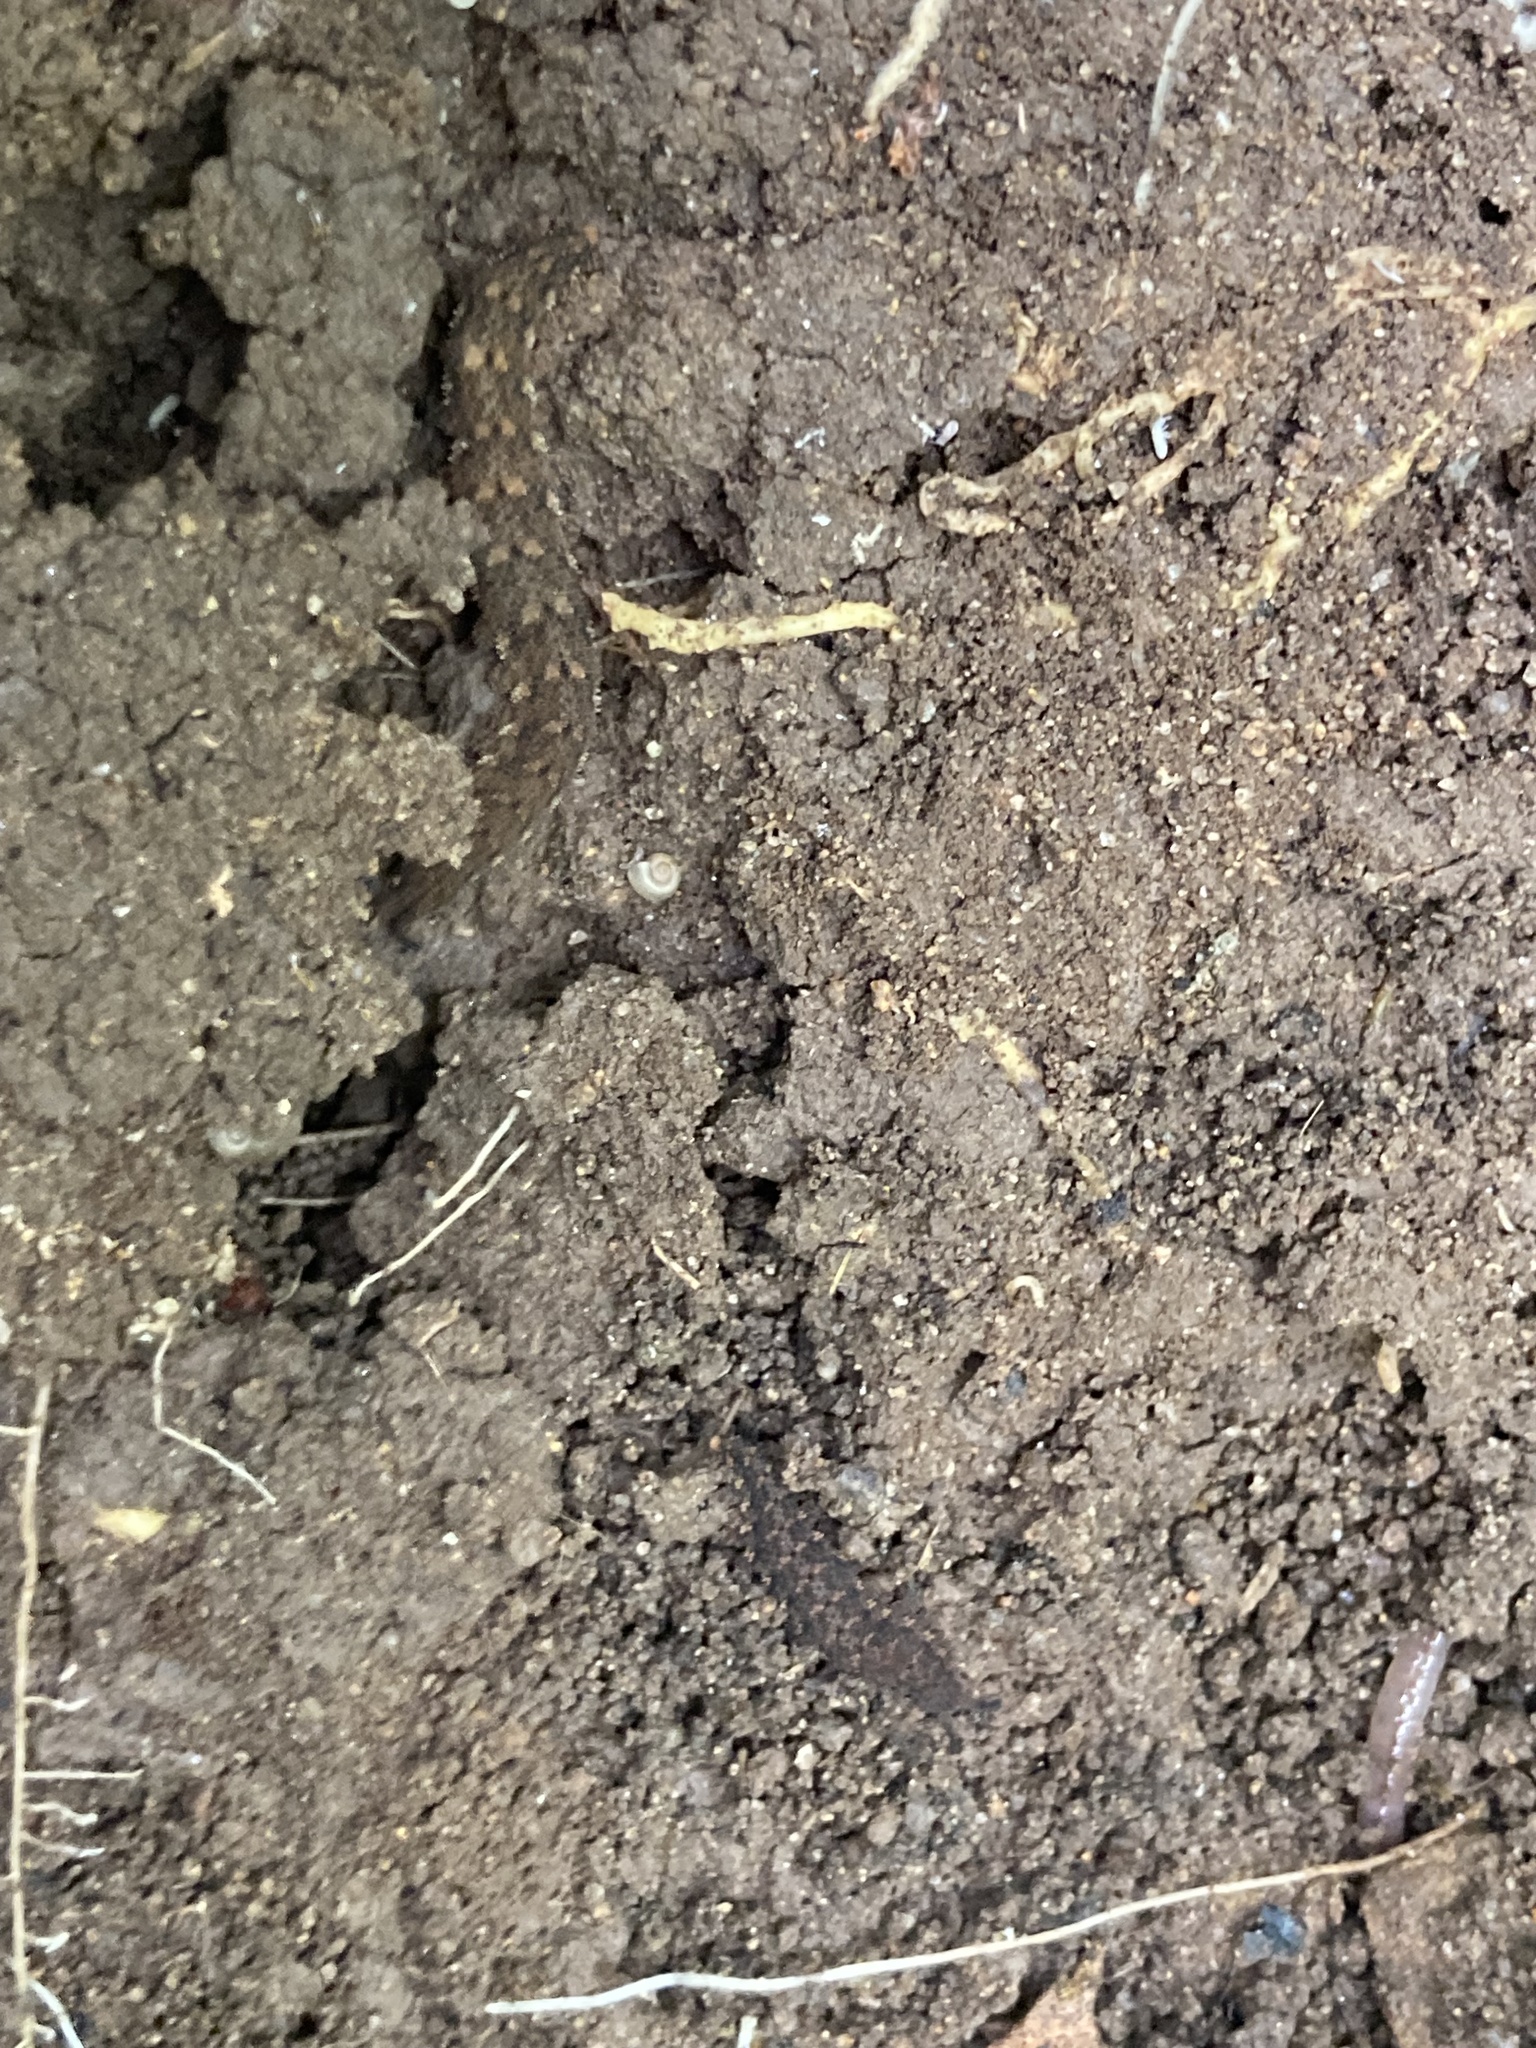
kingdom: Animalia
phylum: Onychophora
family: Peripatopsidae
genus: Anoplokaros
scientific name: Anoplokaros keerensis
